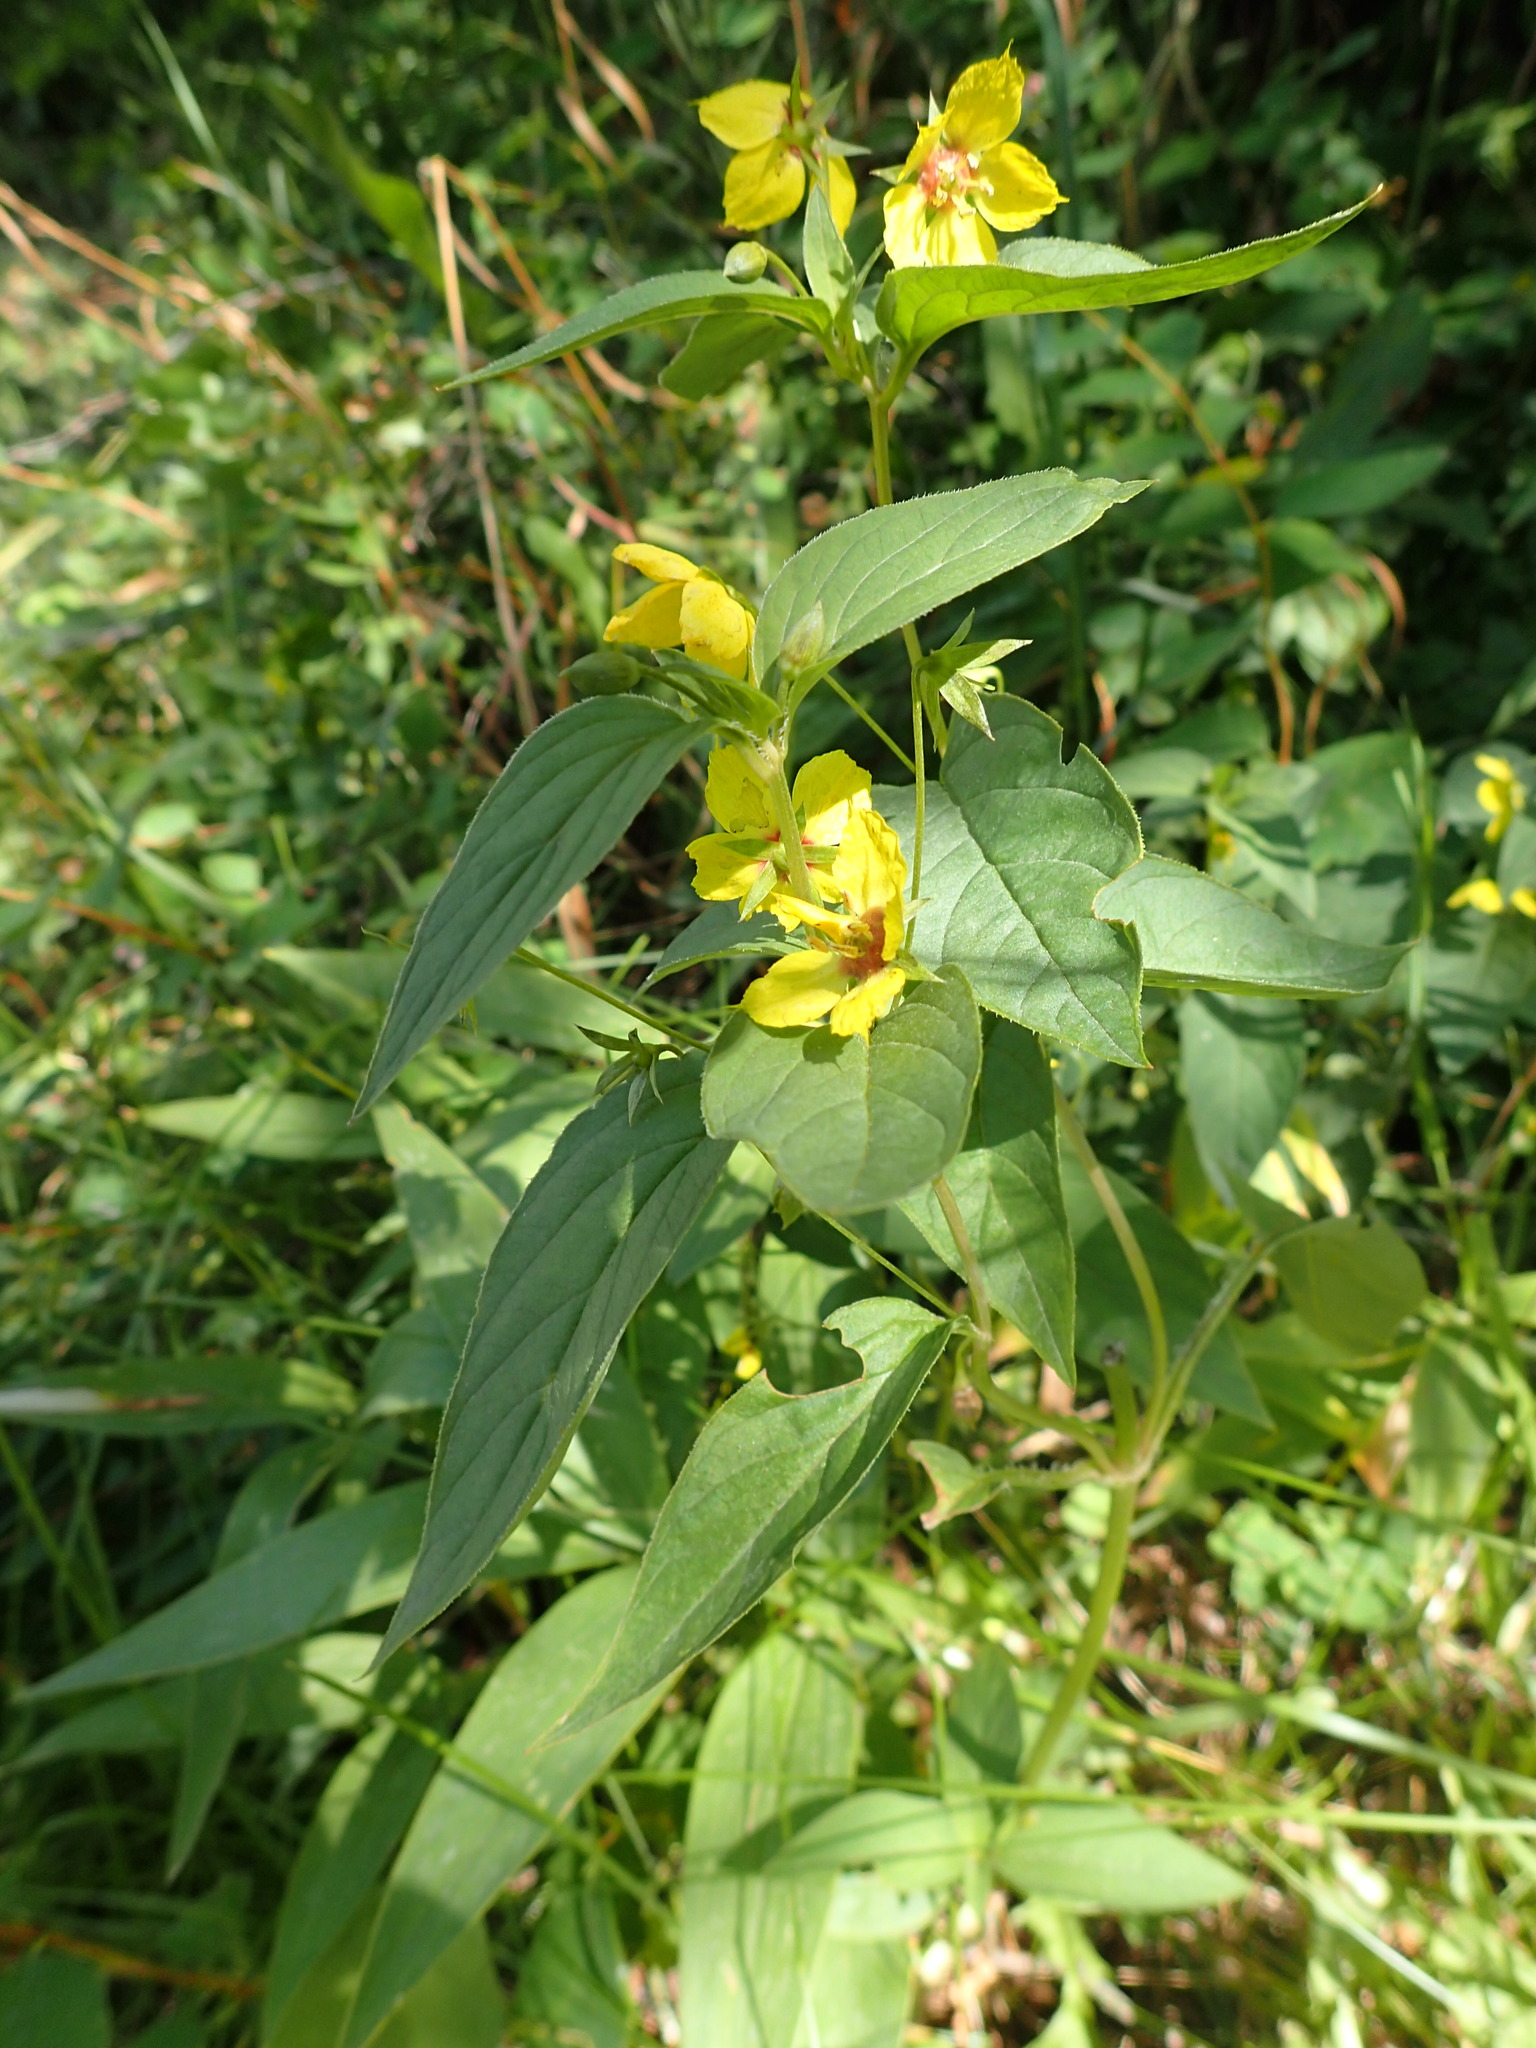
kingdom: Plantae
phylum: Tracheophyta
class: Magnoliopsida
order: Ericales
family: Primulaceae
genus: Lysimachia
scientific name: Lysimachia ciliata
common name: Fringed loosestrife
